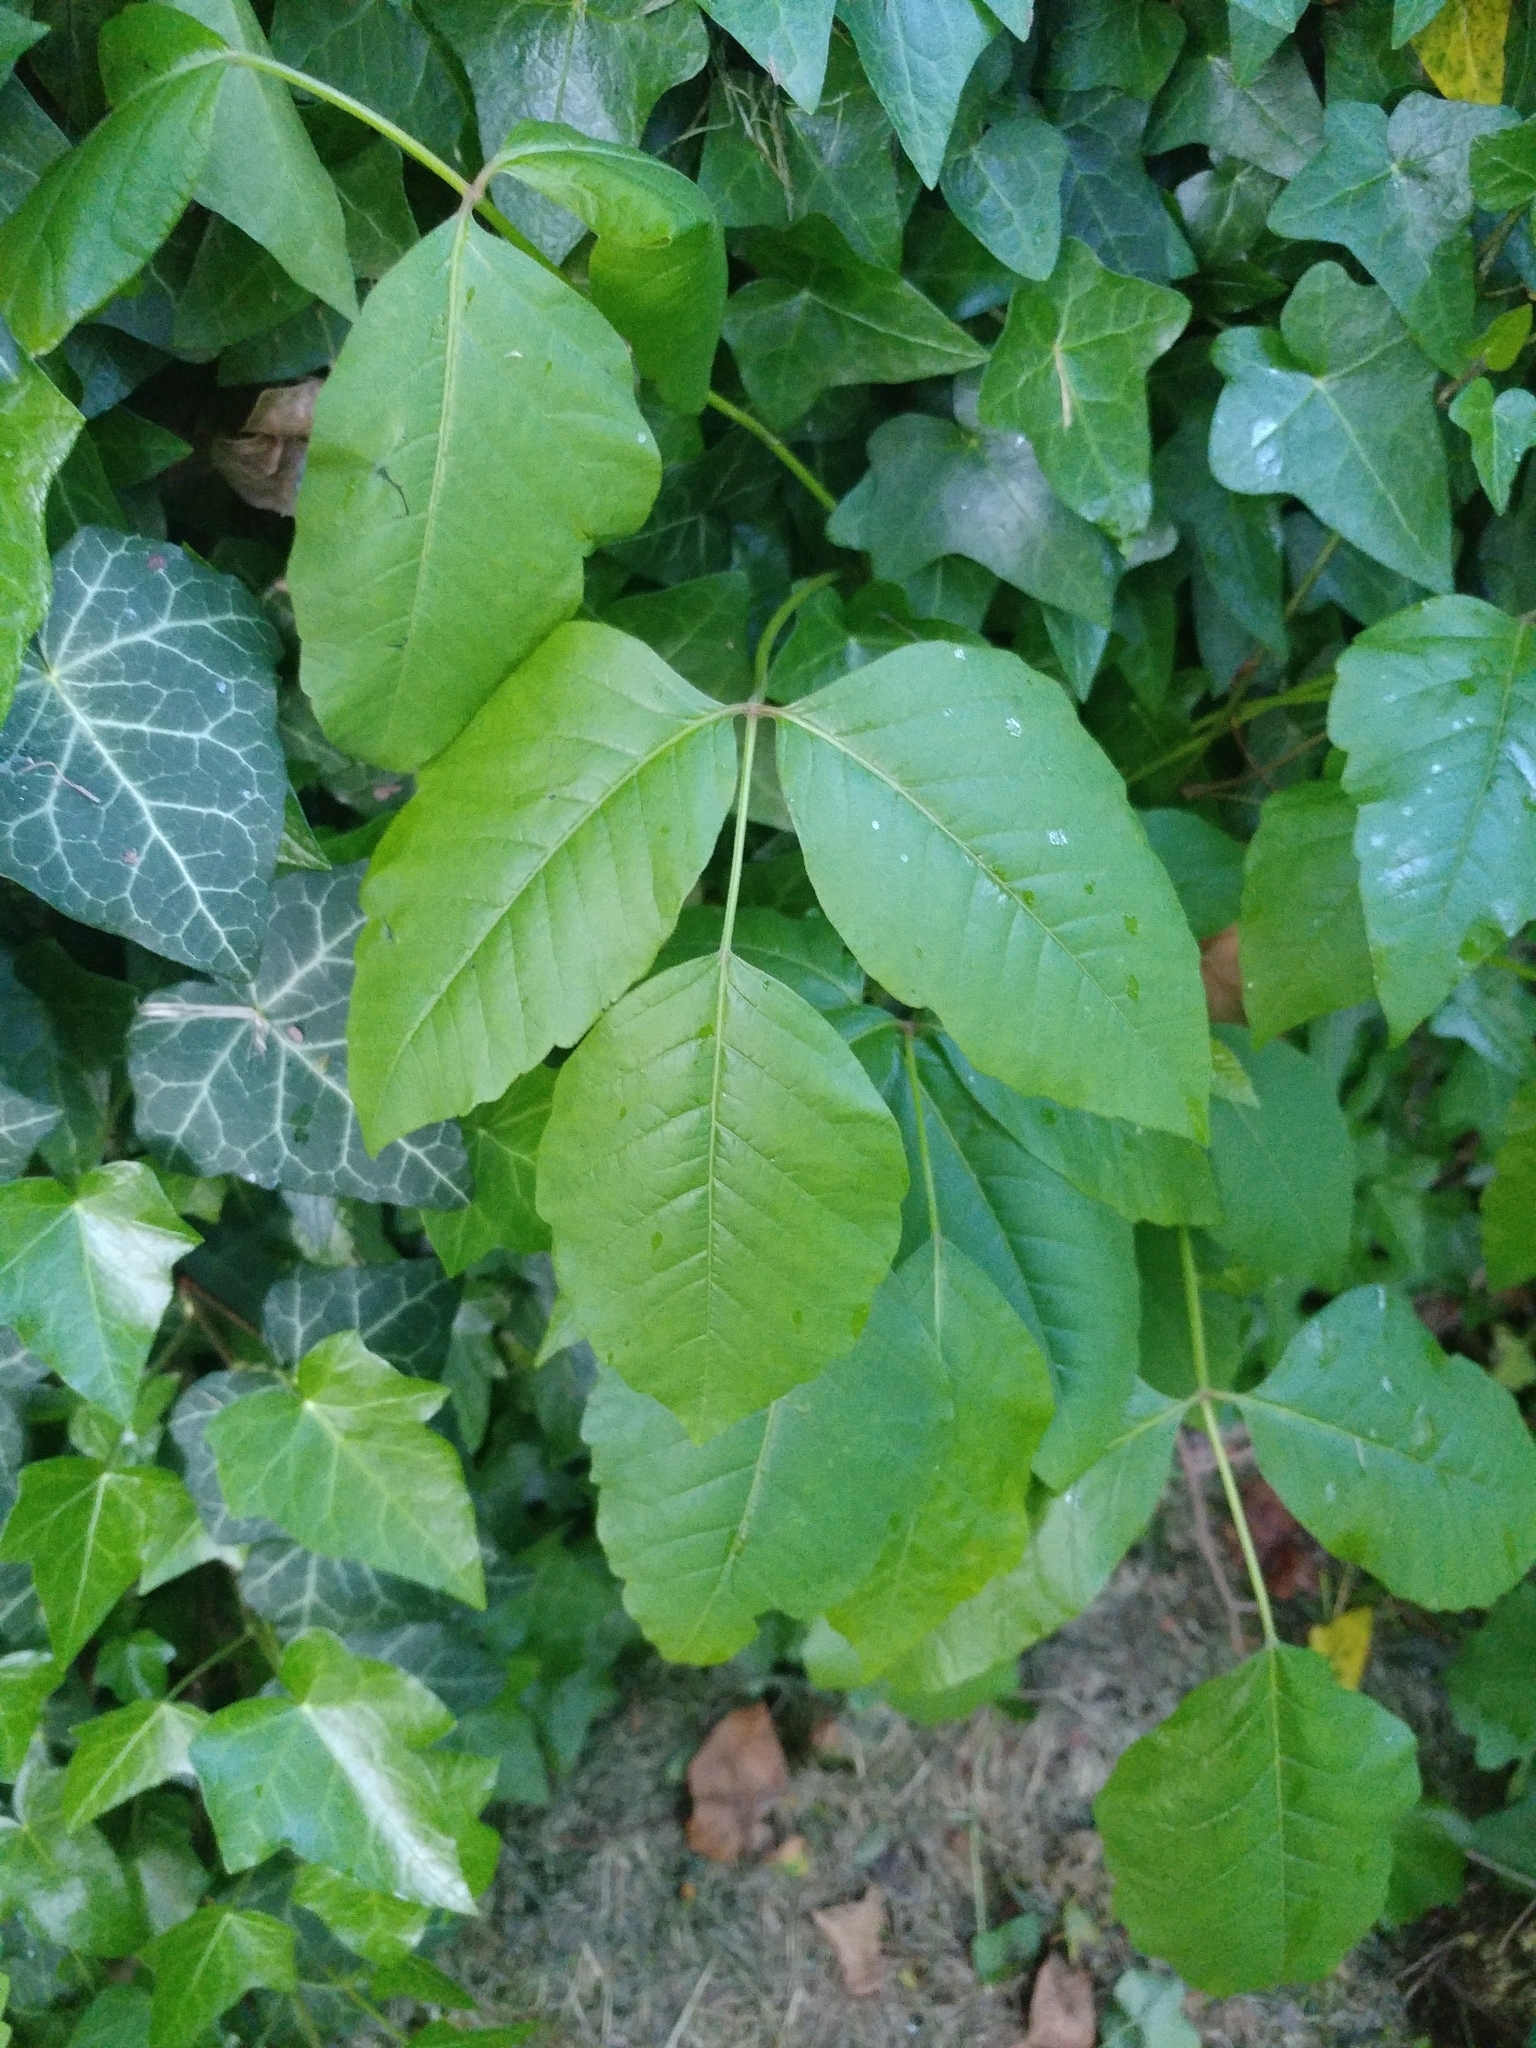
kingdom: Plantae
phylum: Tracheophyta
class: Magnoliopsida
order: Sapindales
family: Anacardiaceae
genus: Toxicodendron
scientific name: Toxicodendron radicans
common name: Poison ivy
